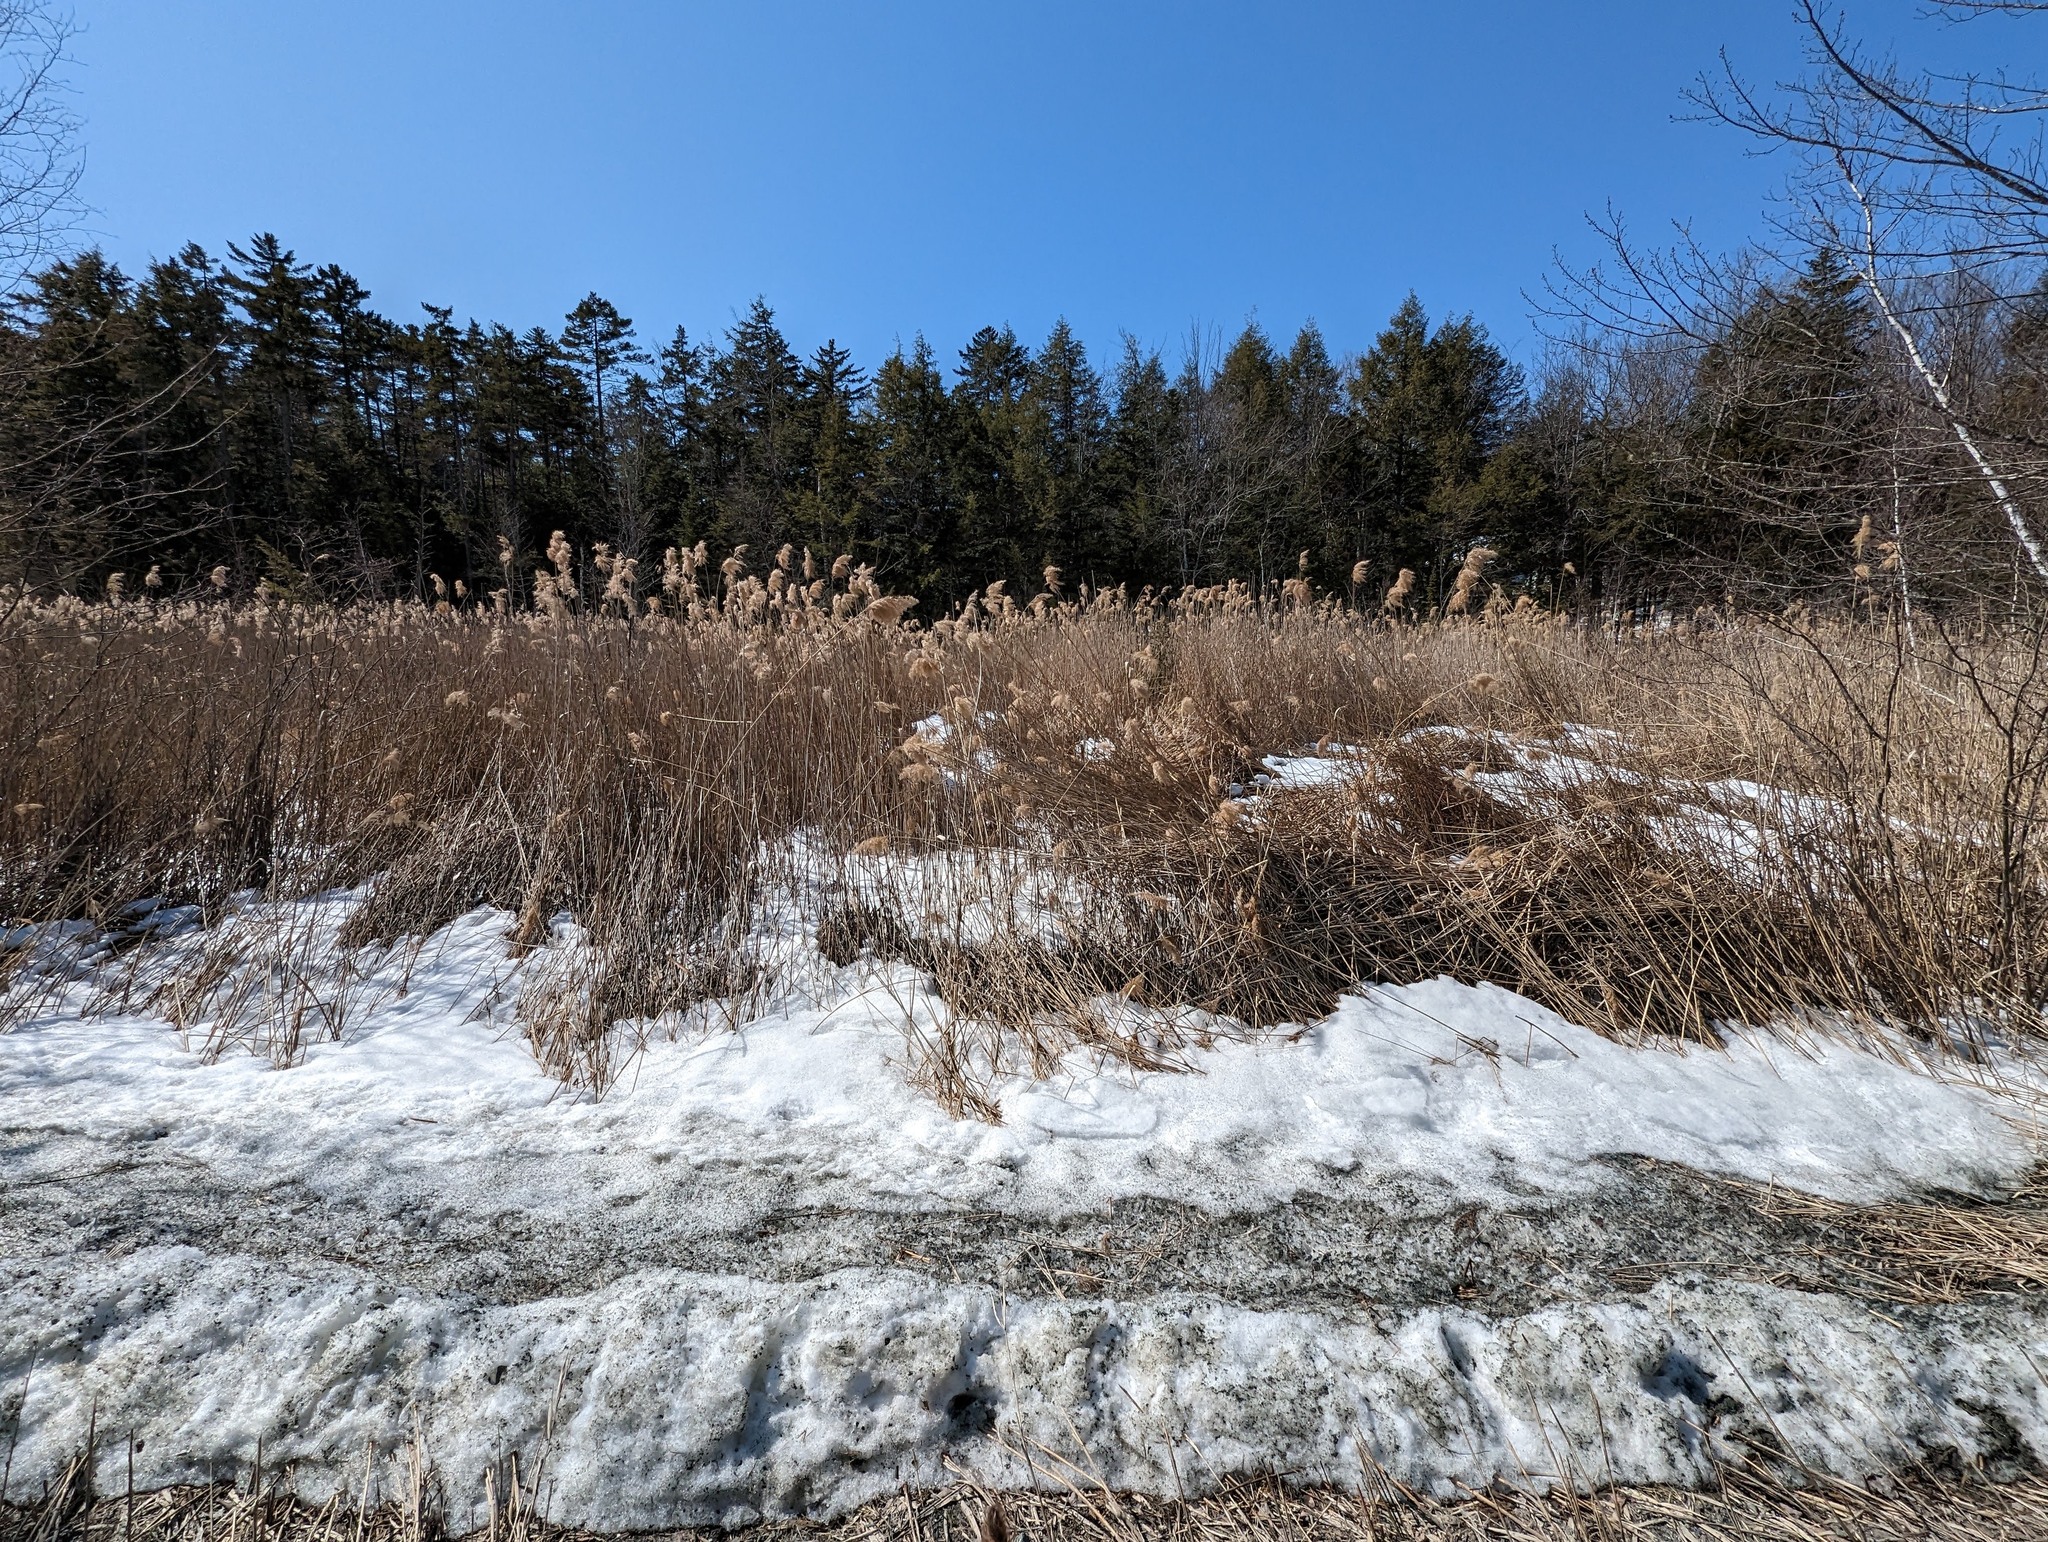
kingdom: Plantae
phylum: Tracheophyta
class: Liliopsida
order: Poales
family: Poaceae
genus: Phragmites
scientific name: Phragmites australis
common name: Common reed
